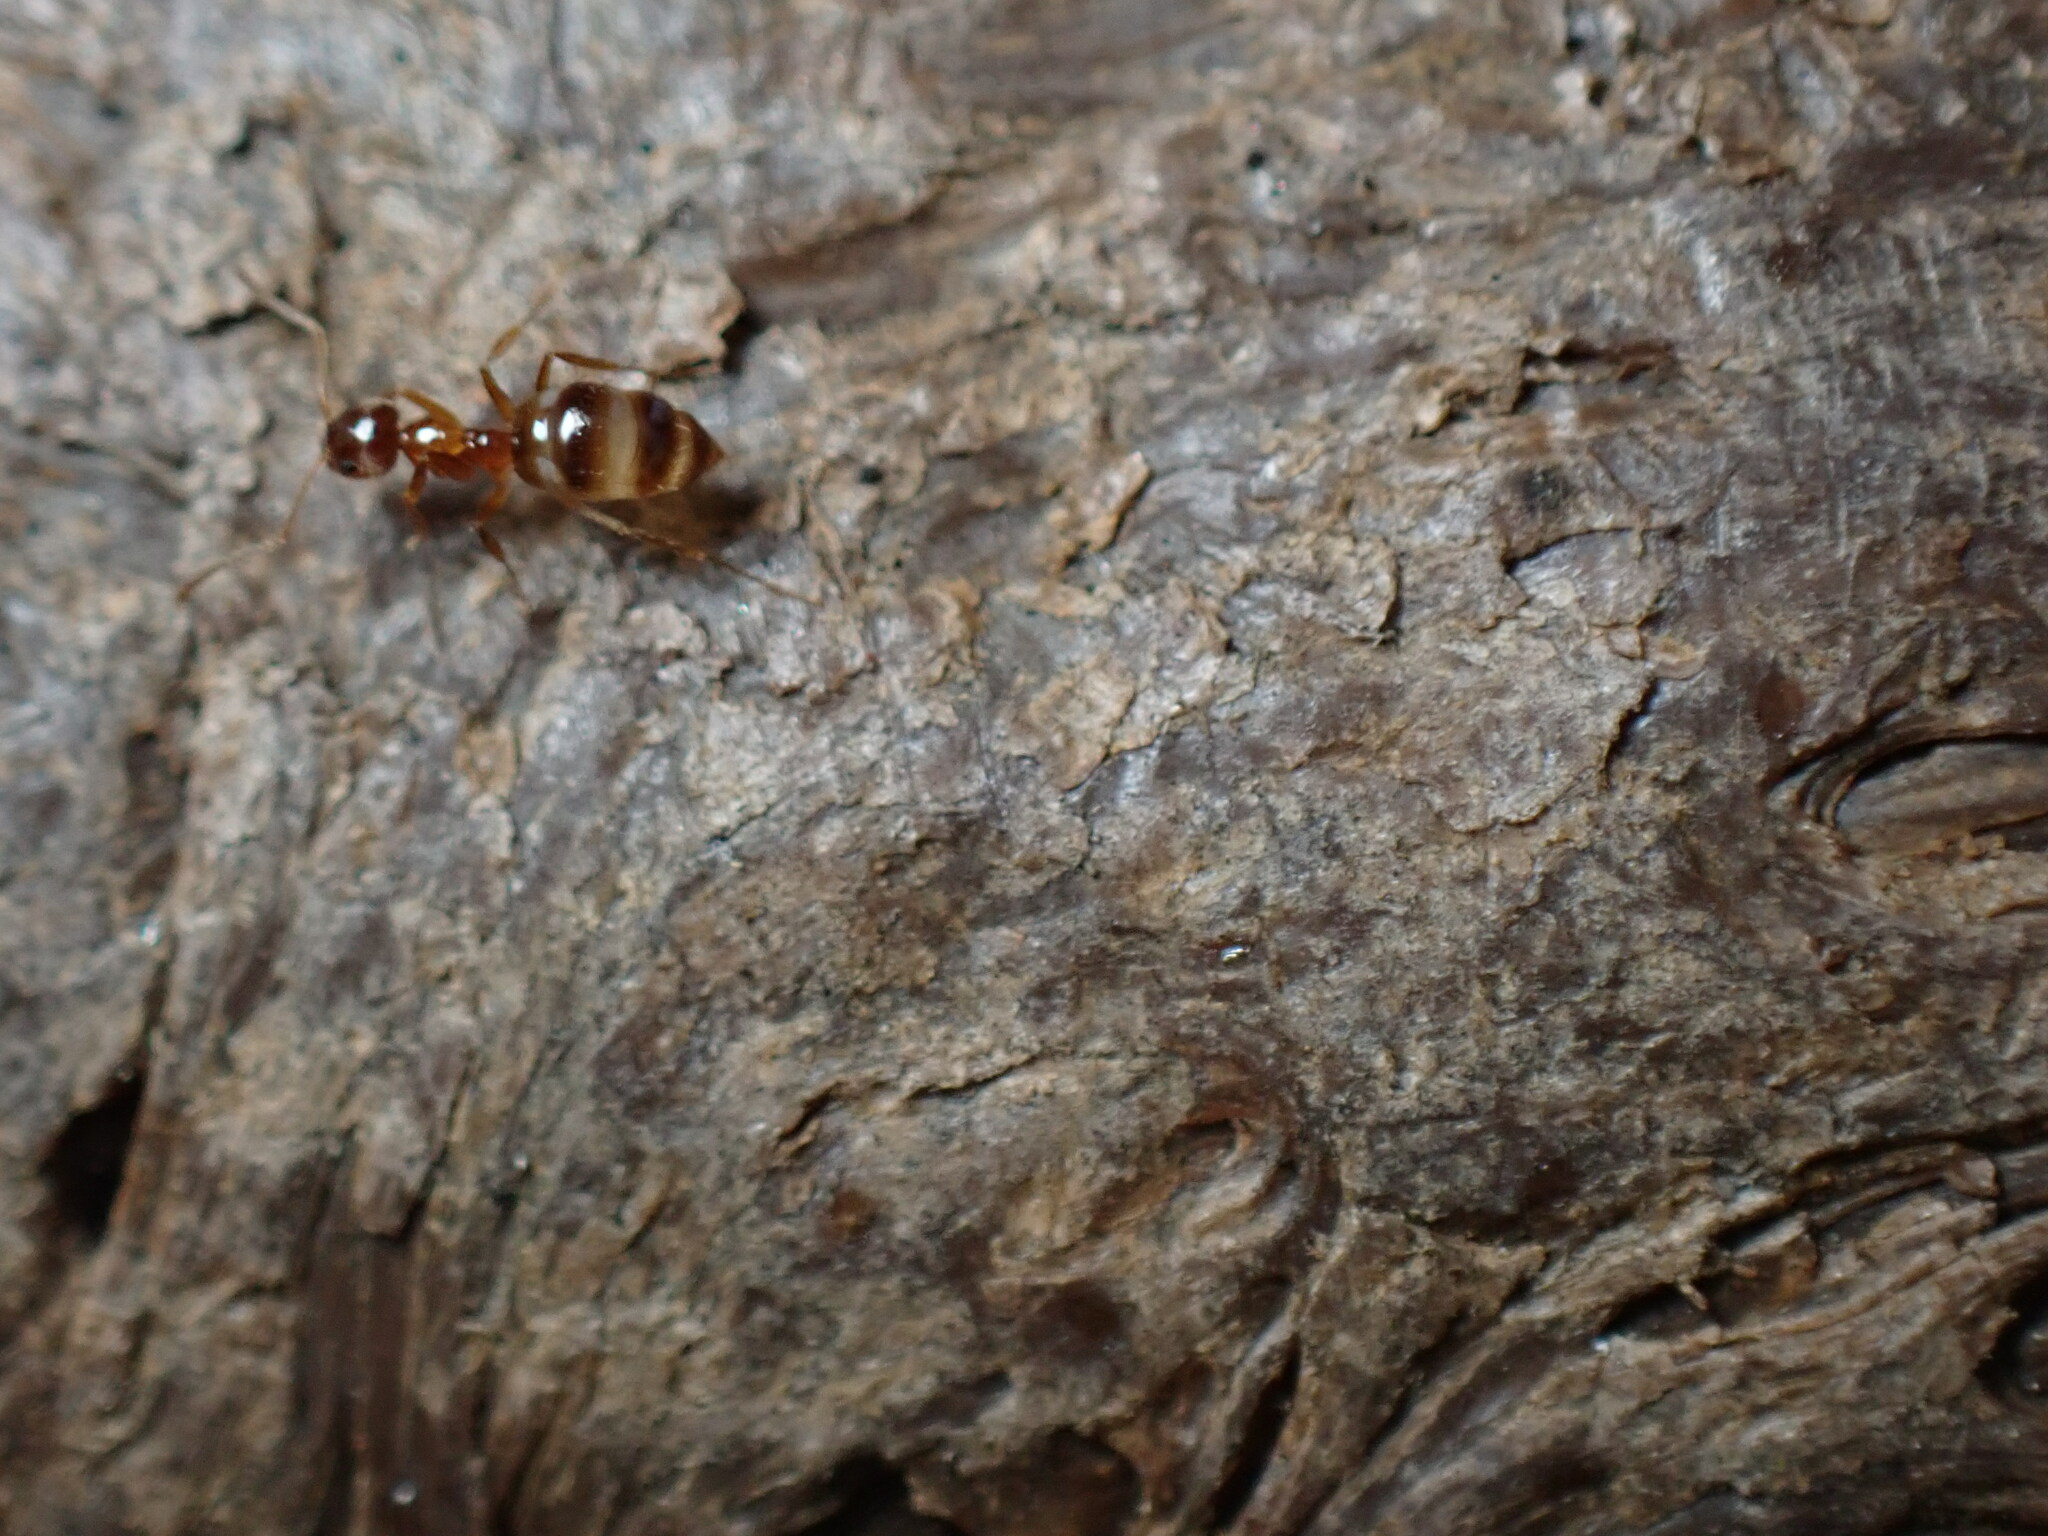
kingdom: Animalia
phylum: Arthropoda
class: Insecta
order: Hymenoptera
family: Formicidae
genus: Paratrechina
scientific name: Paratrechina flavipes
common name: Eastern asian formicine ant
